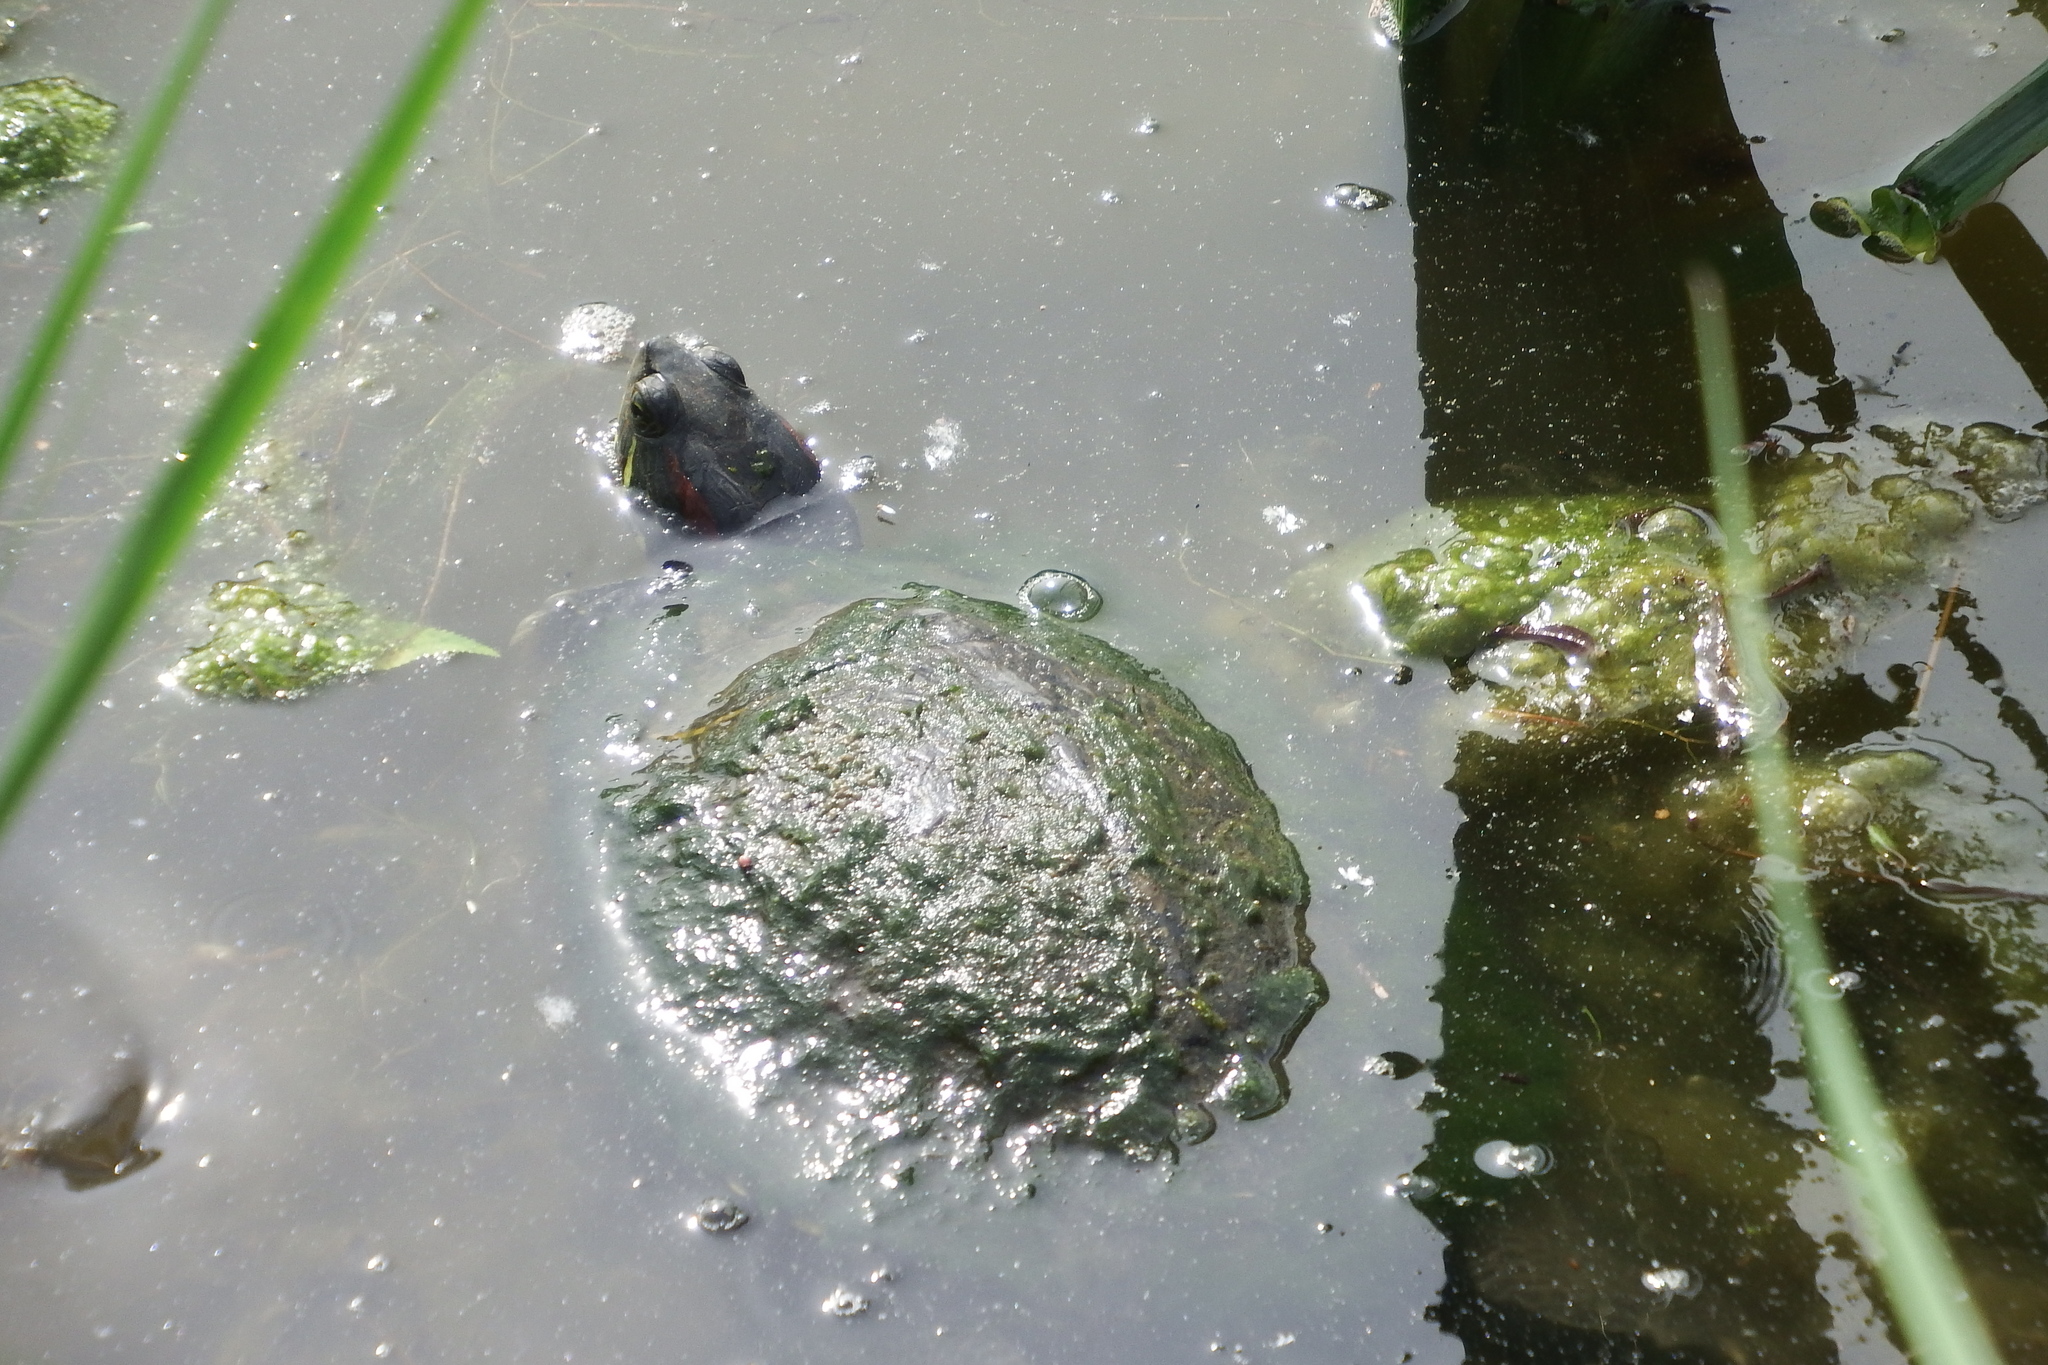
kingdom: Animalia
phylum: Chordata
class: Testudines
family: Emydidae
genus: Trachemys
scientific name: Trachemys scripta
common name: Slider
